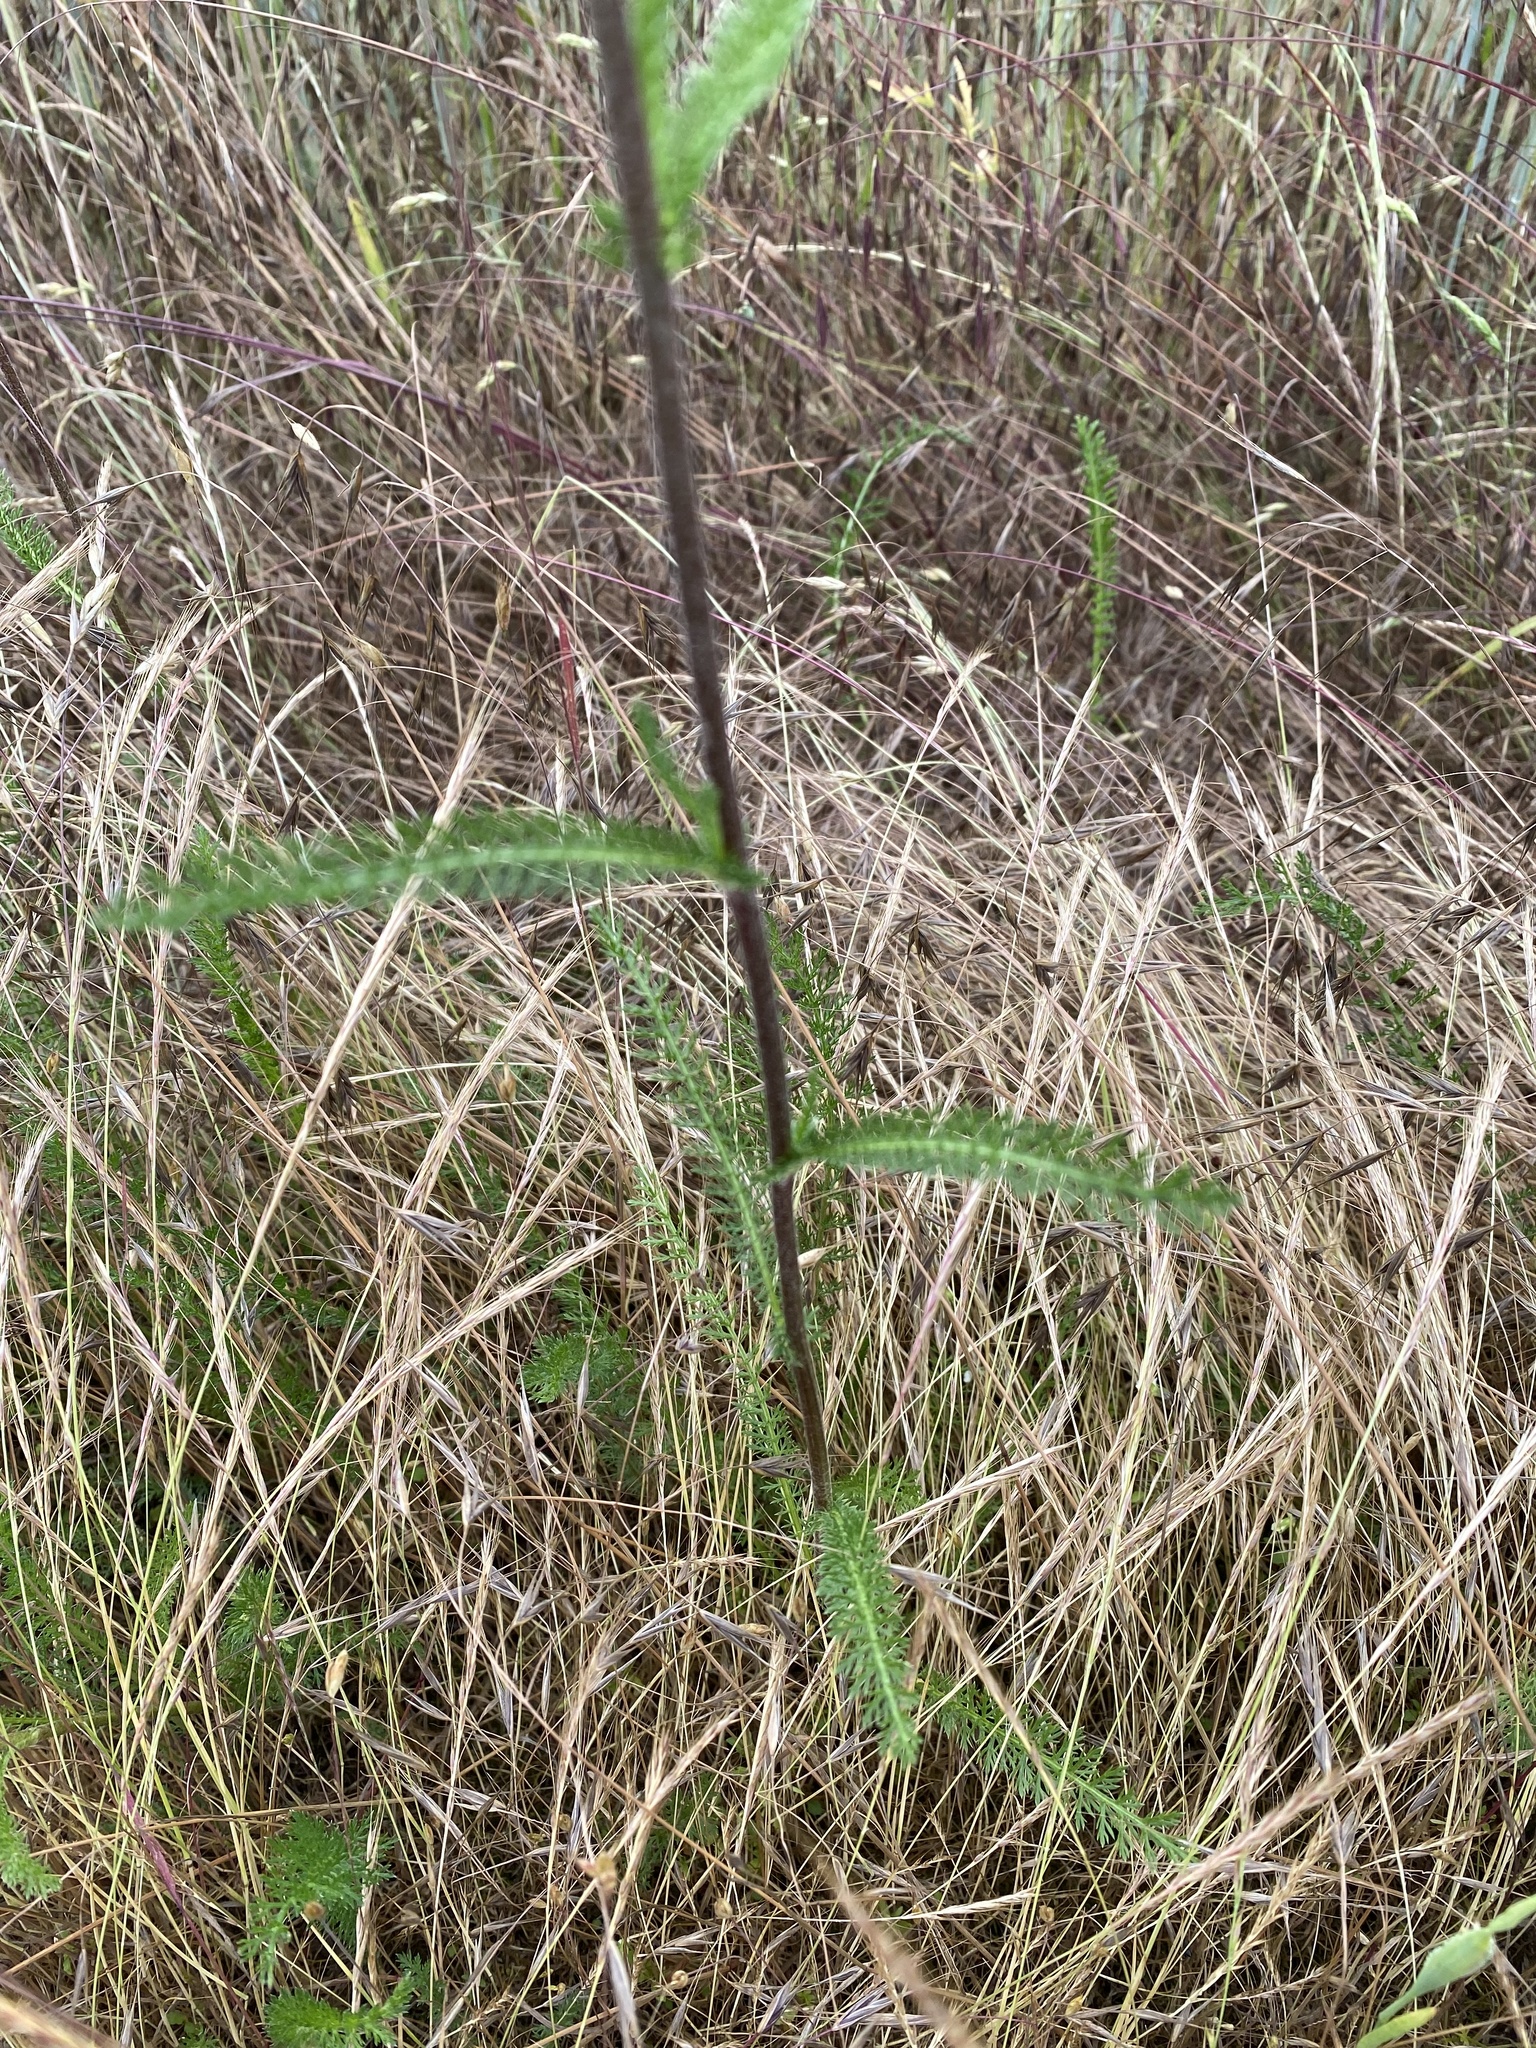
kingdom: Plantae
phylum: Tracheophyta
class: Magnoliopsida
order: Asterales
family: Asteraceae
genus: Achillea
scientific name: Achillea millefolium
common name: Yarrow
